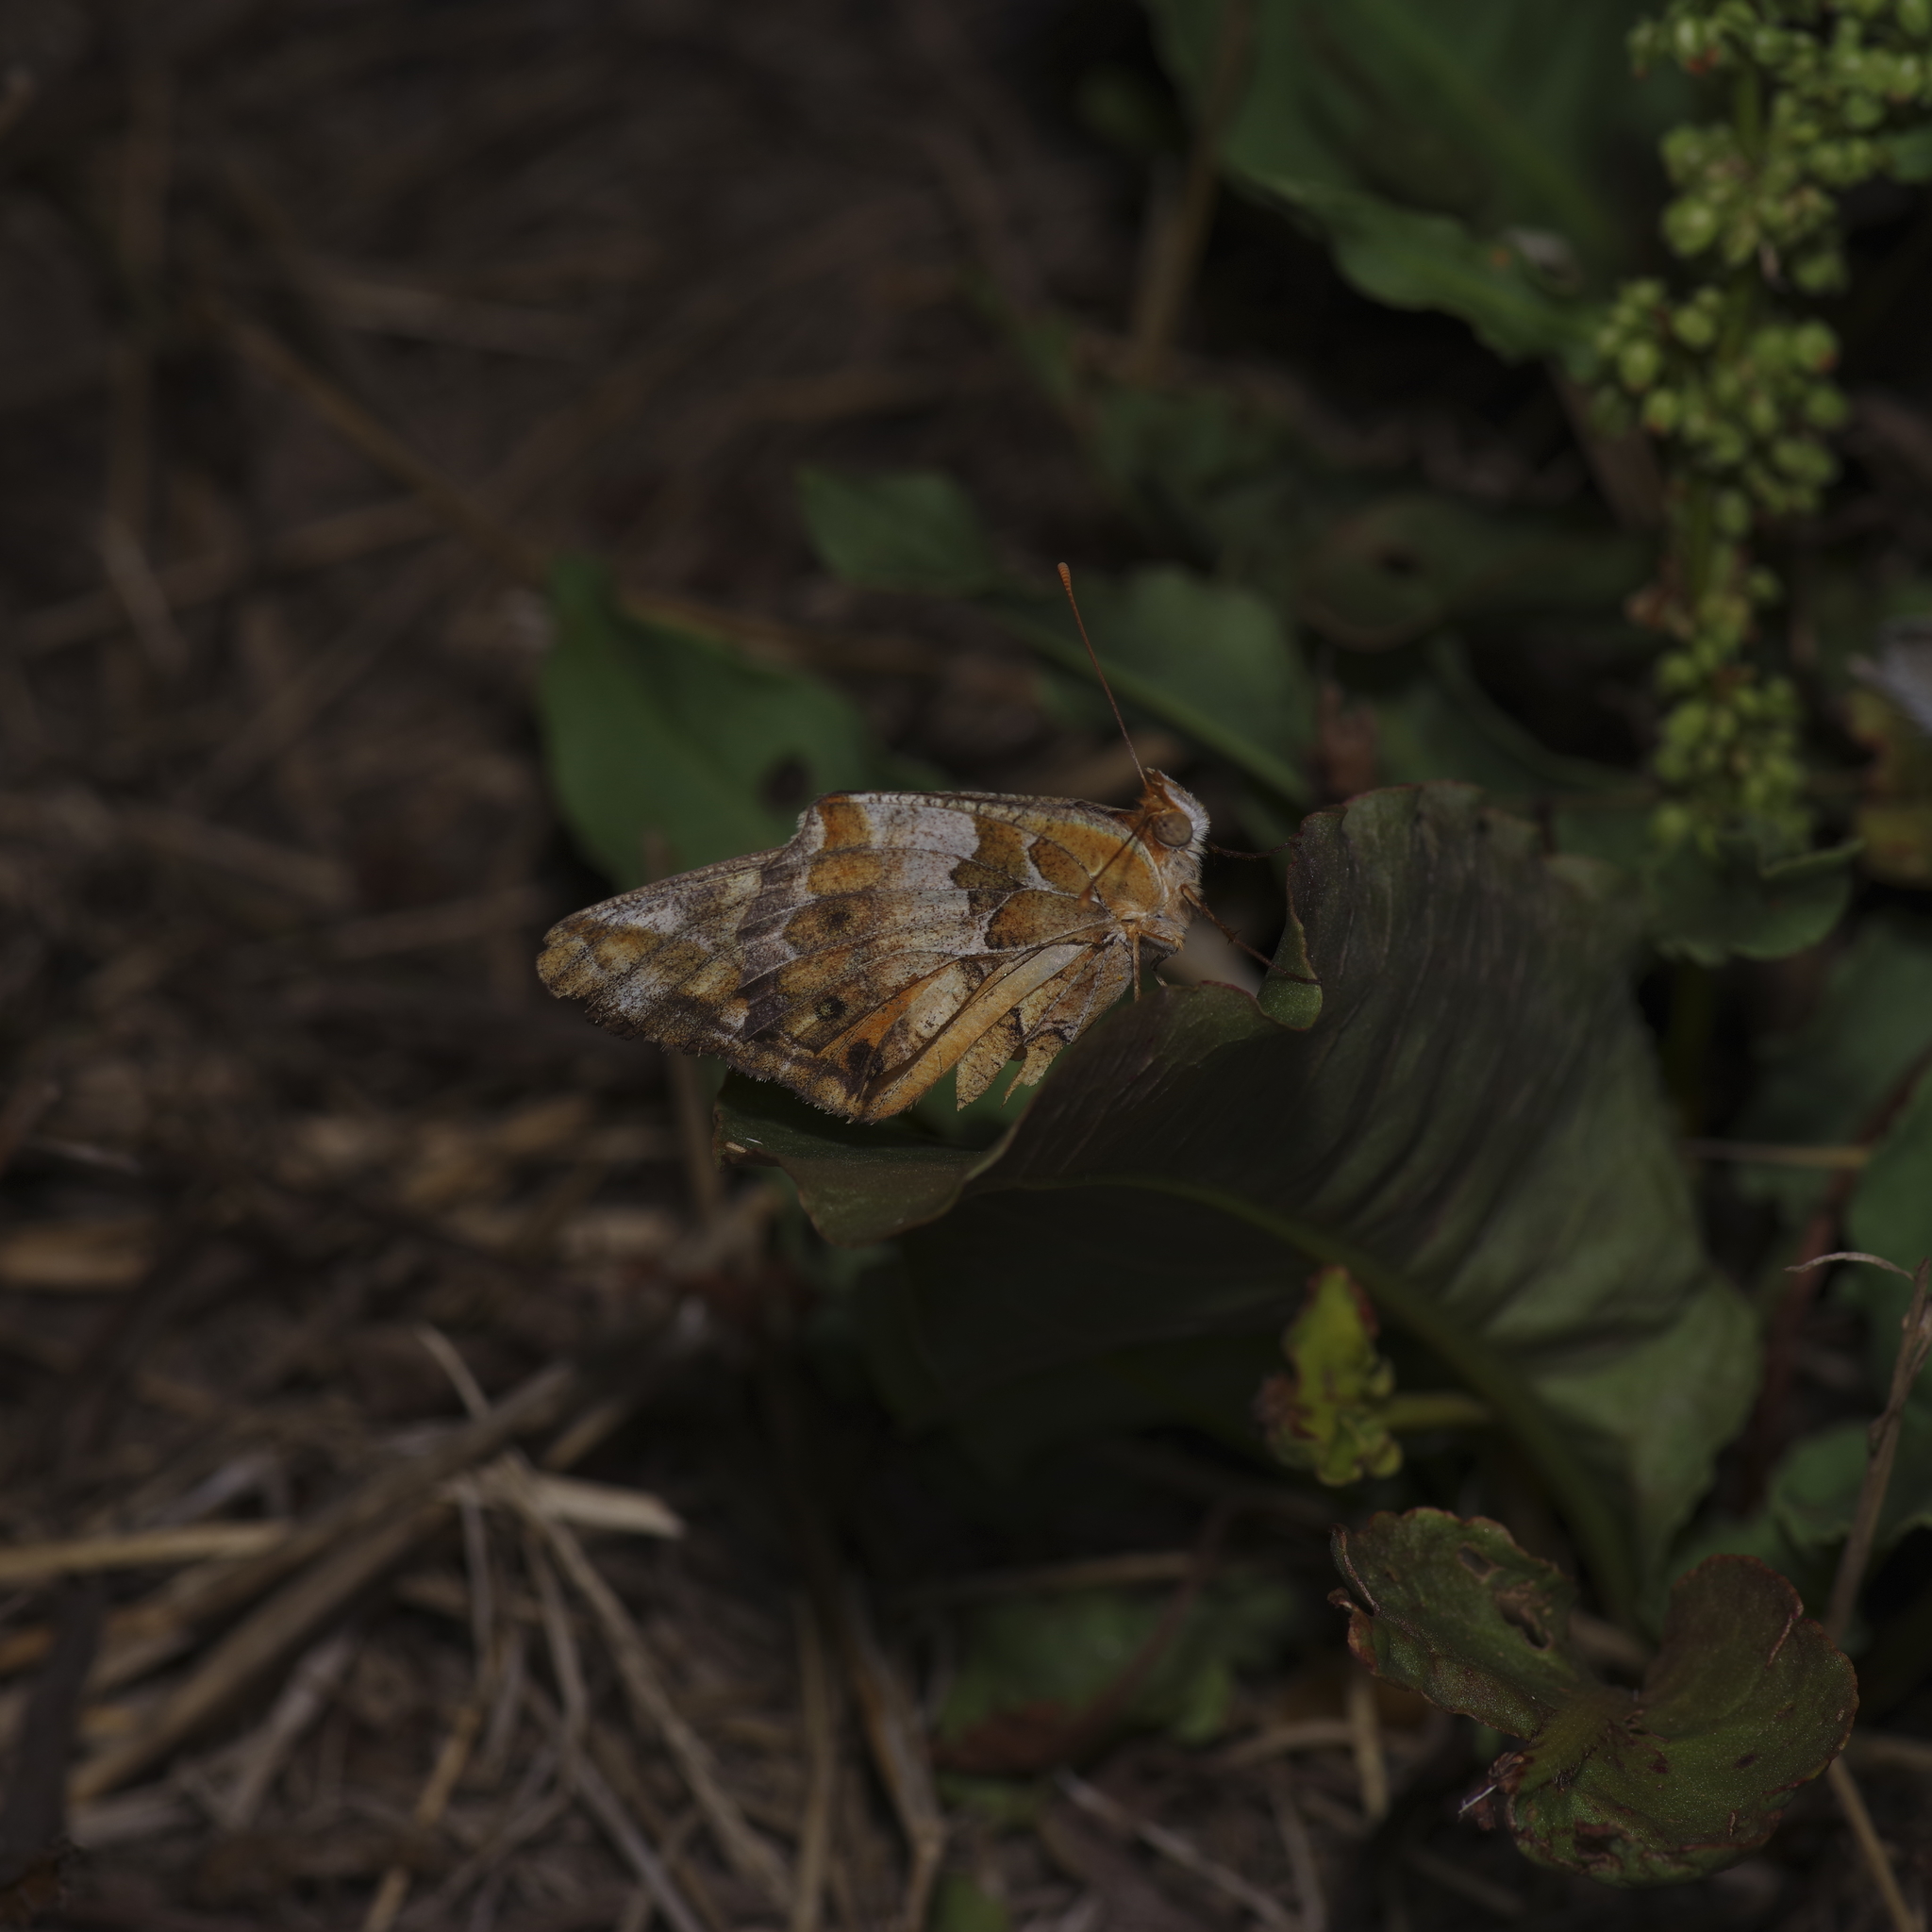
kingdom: Animalia
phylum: Arthropoda
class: Insecta
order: Lepidoptera
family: Nymphalidae
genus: Euptoieta
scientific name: Euptoieta claudia
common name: Variegated fritillary
